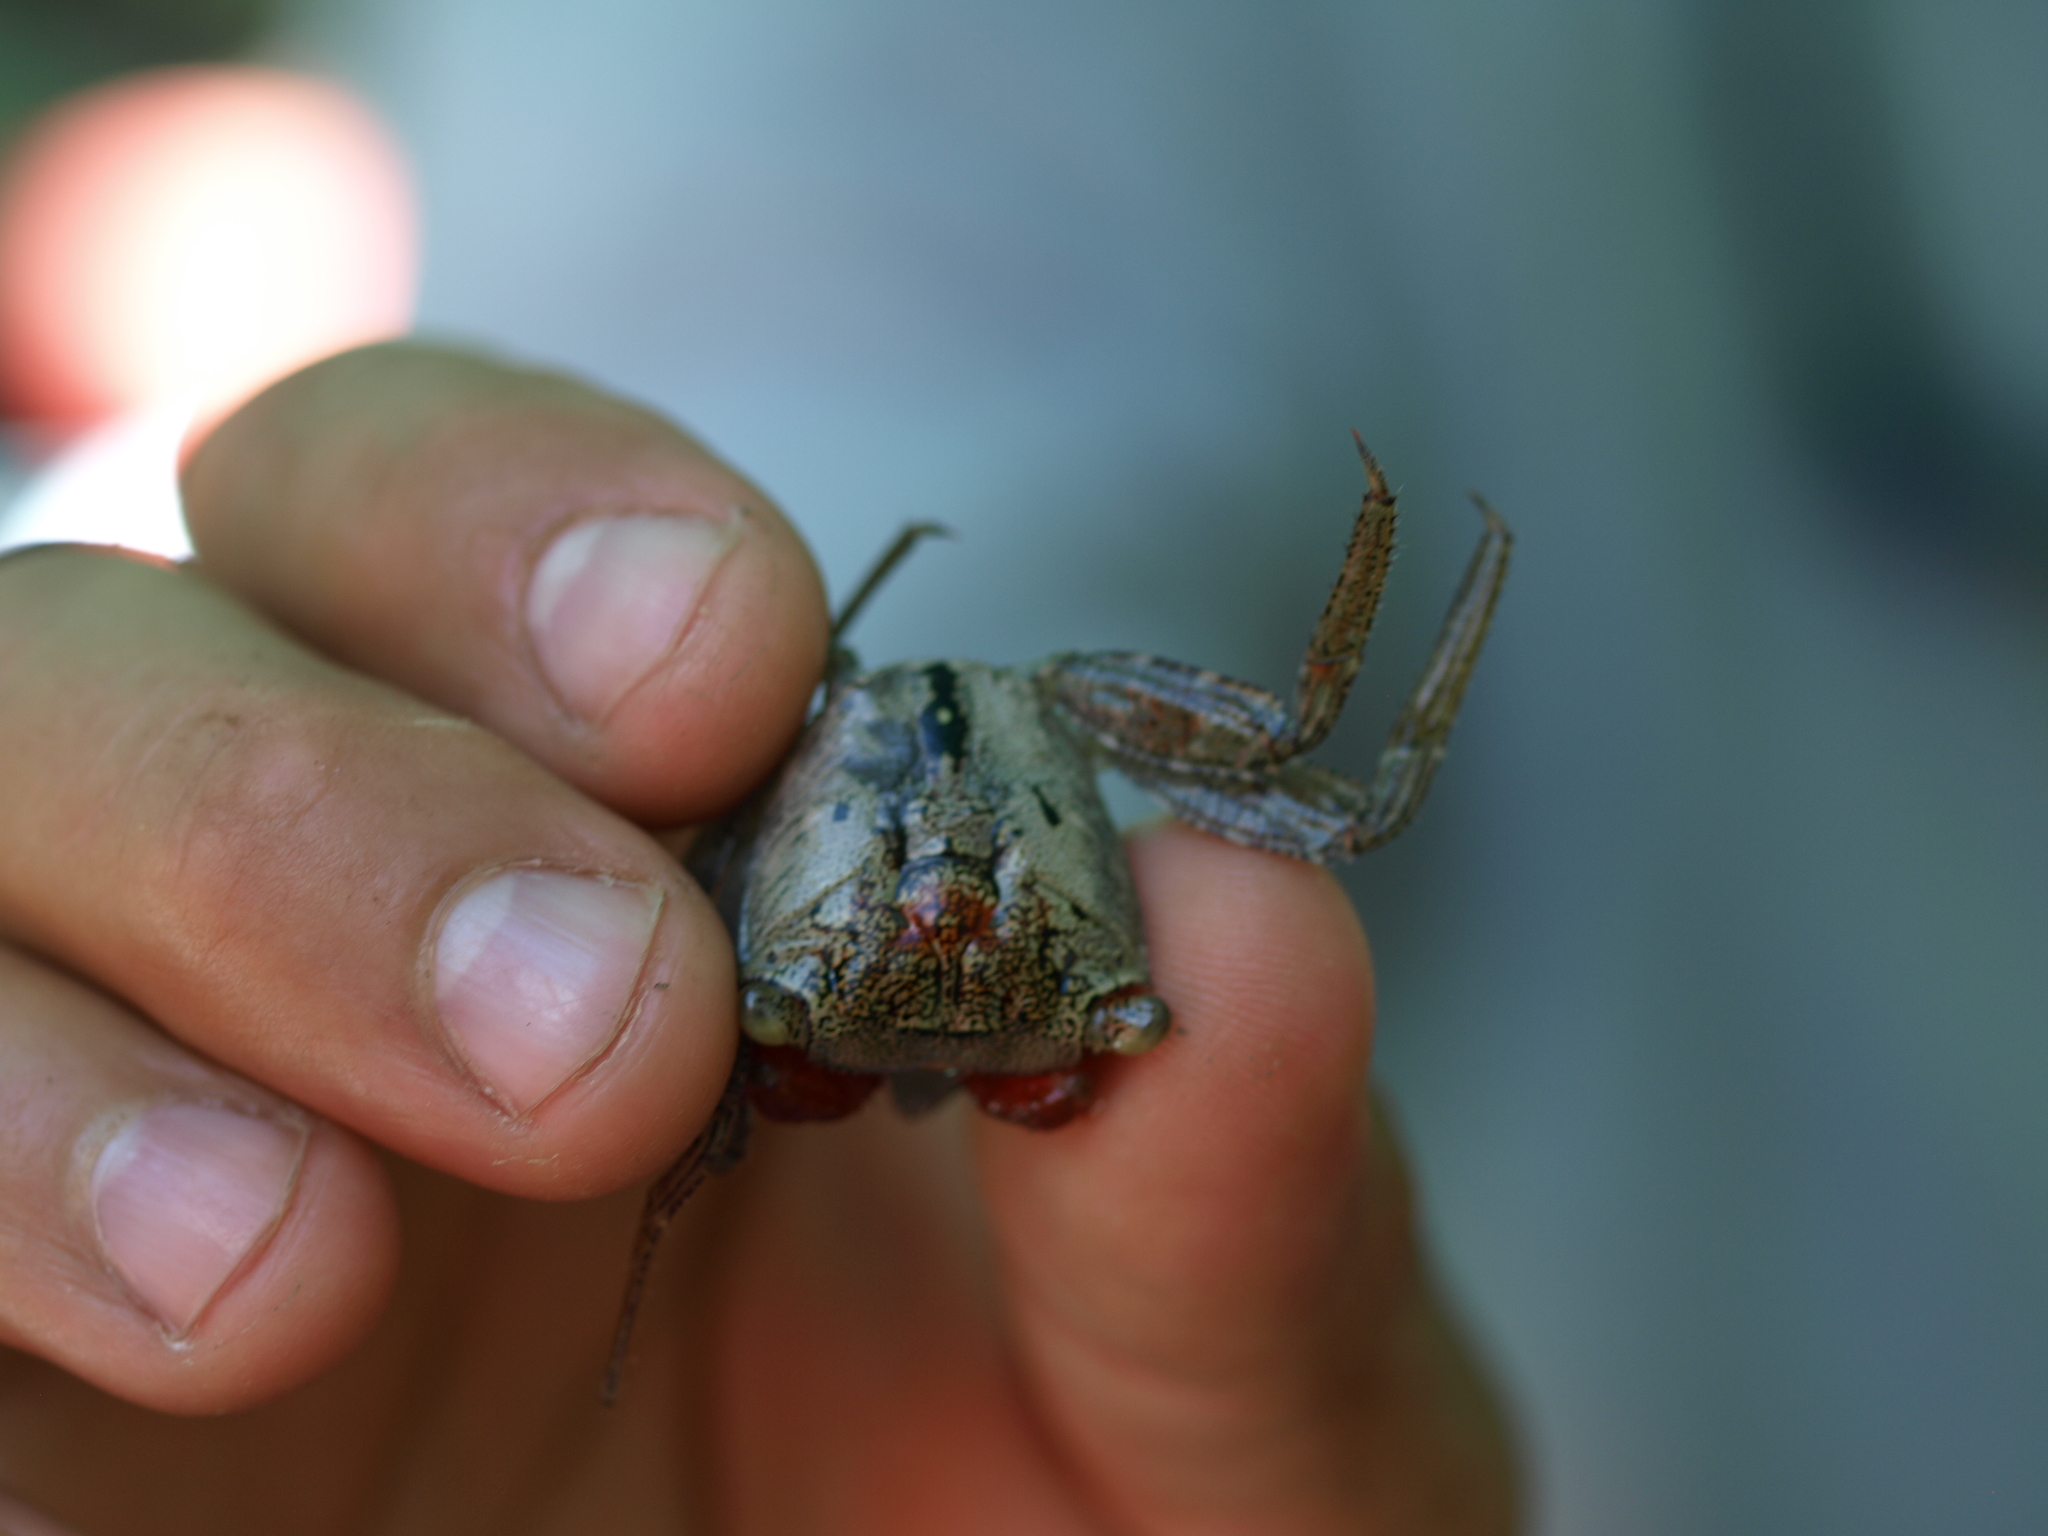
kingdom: Animalia
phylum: Arthropoda
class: Malacostraca
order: Decapoda
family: Sesarmidae
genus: Aratus
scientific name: Aratus pacificus
